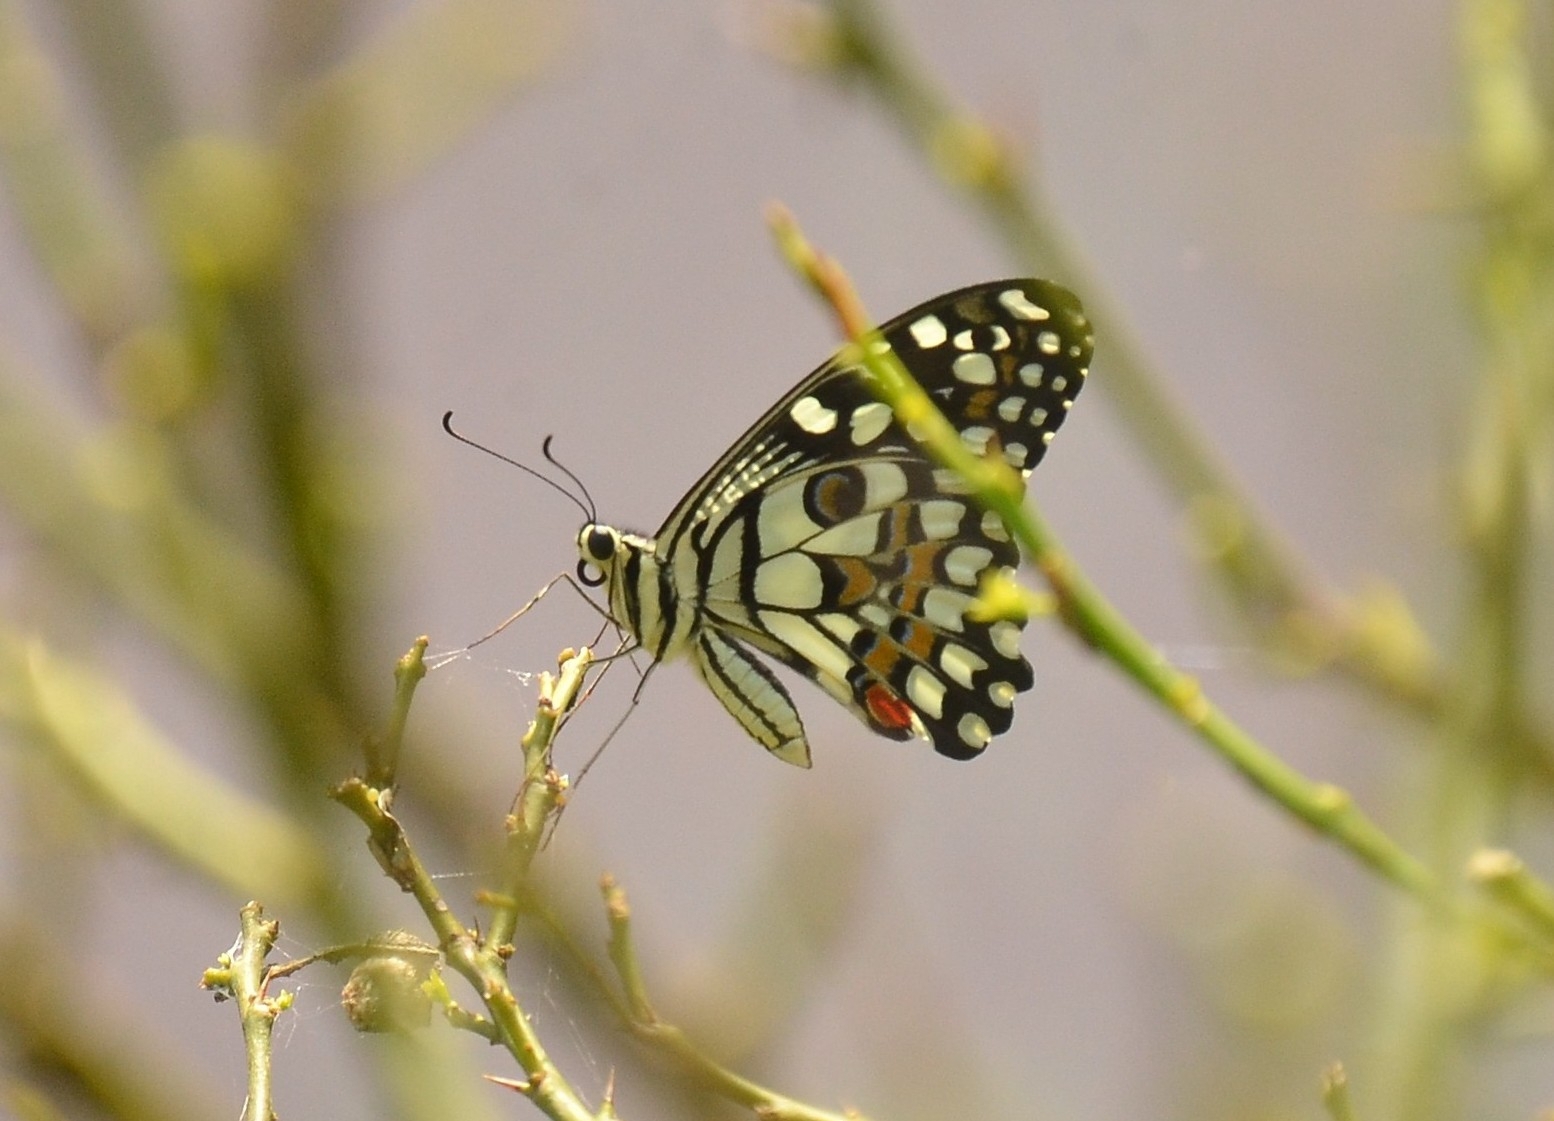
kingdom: Animalia
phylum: Arthropoda
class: Insecta
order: Lepidoptera
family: Papilionidae
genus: Papilio
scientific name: Papilio demoleus
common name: Lime butterfly
